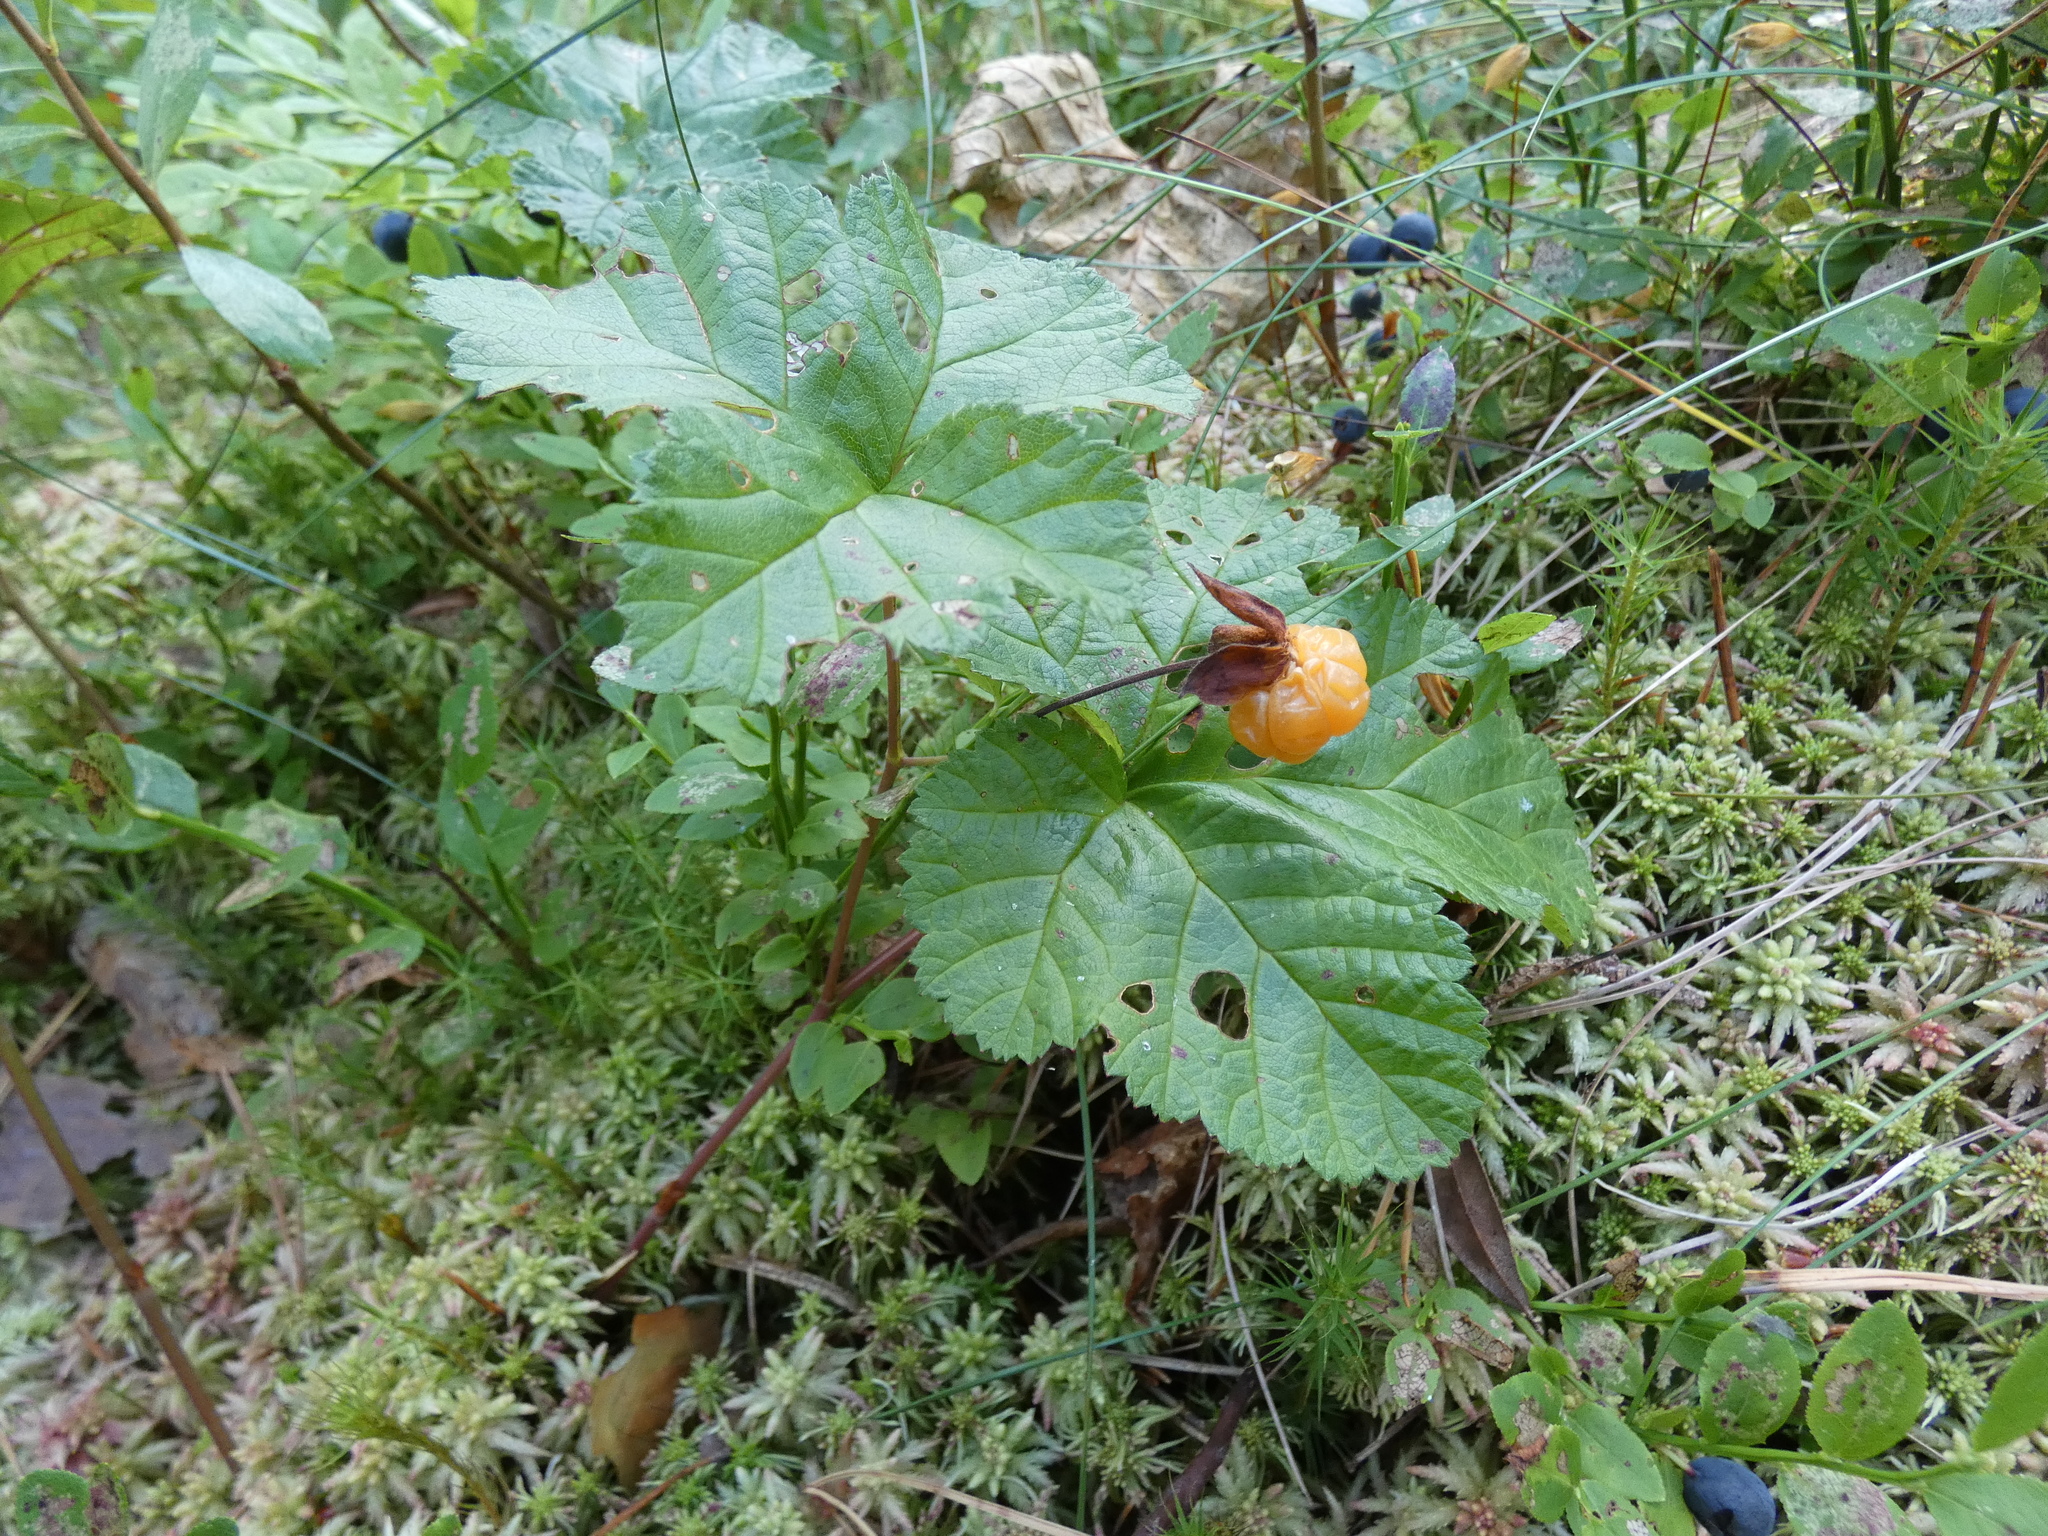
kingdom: Plantae
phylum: Tracheophyta
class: Magnoliopsida
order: Rosales
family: Rosaceae
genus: Rubus
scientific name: Rubus chamaemorus
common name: Cloudberry
